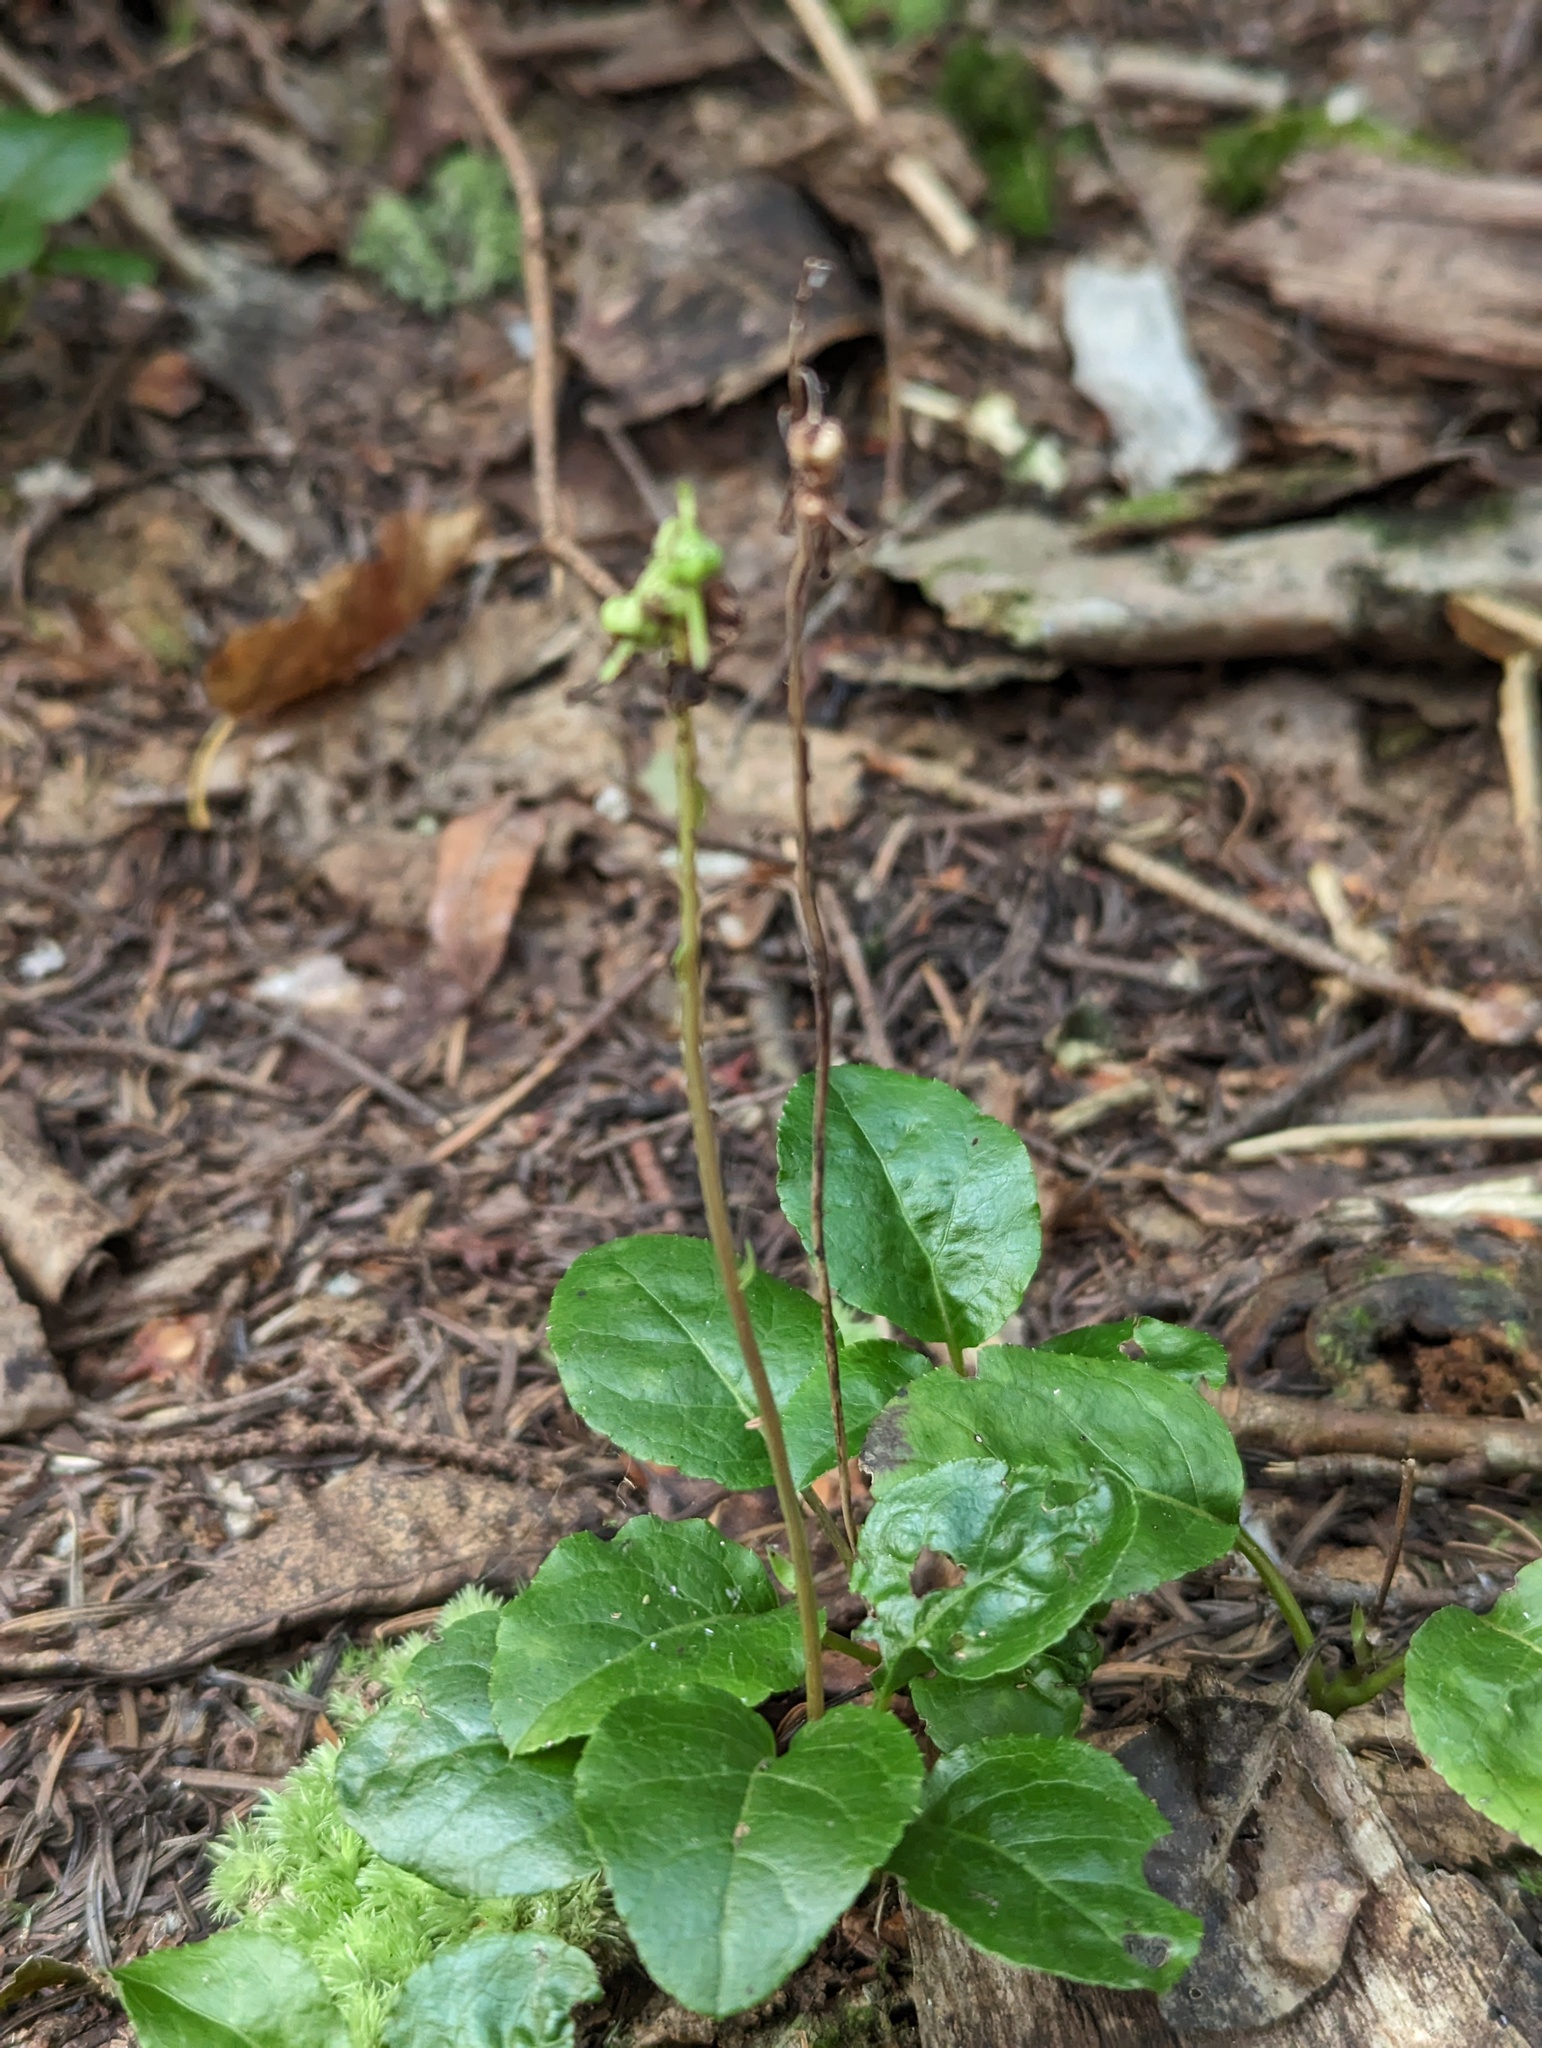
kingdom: Plantae
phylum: Tracheophyta
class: Magnoliopsida
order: Ericales
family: Ericaceae
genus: Orthilia
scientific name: Orthilia secunda
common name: One-sided orthilia
